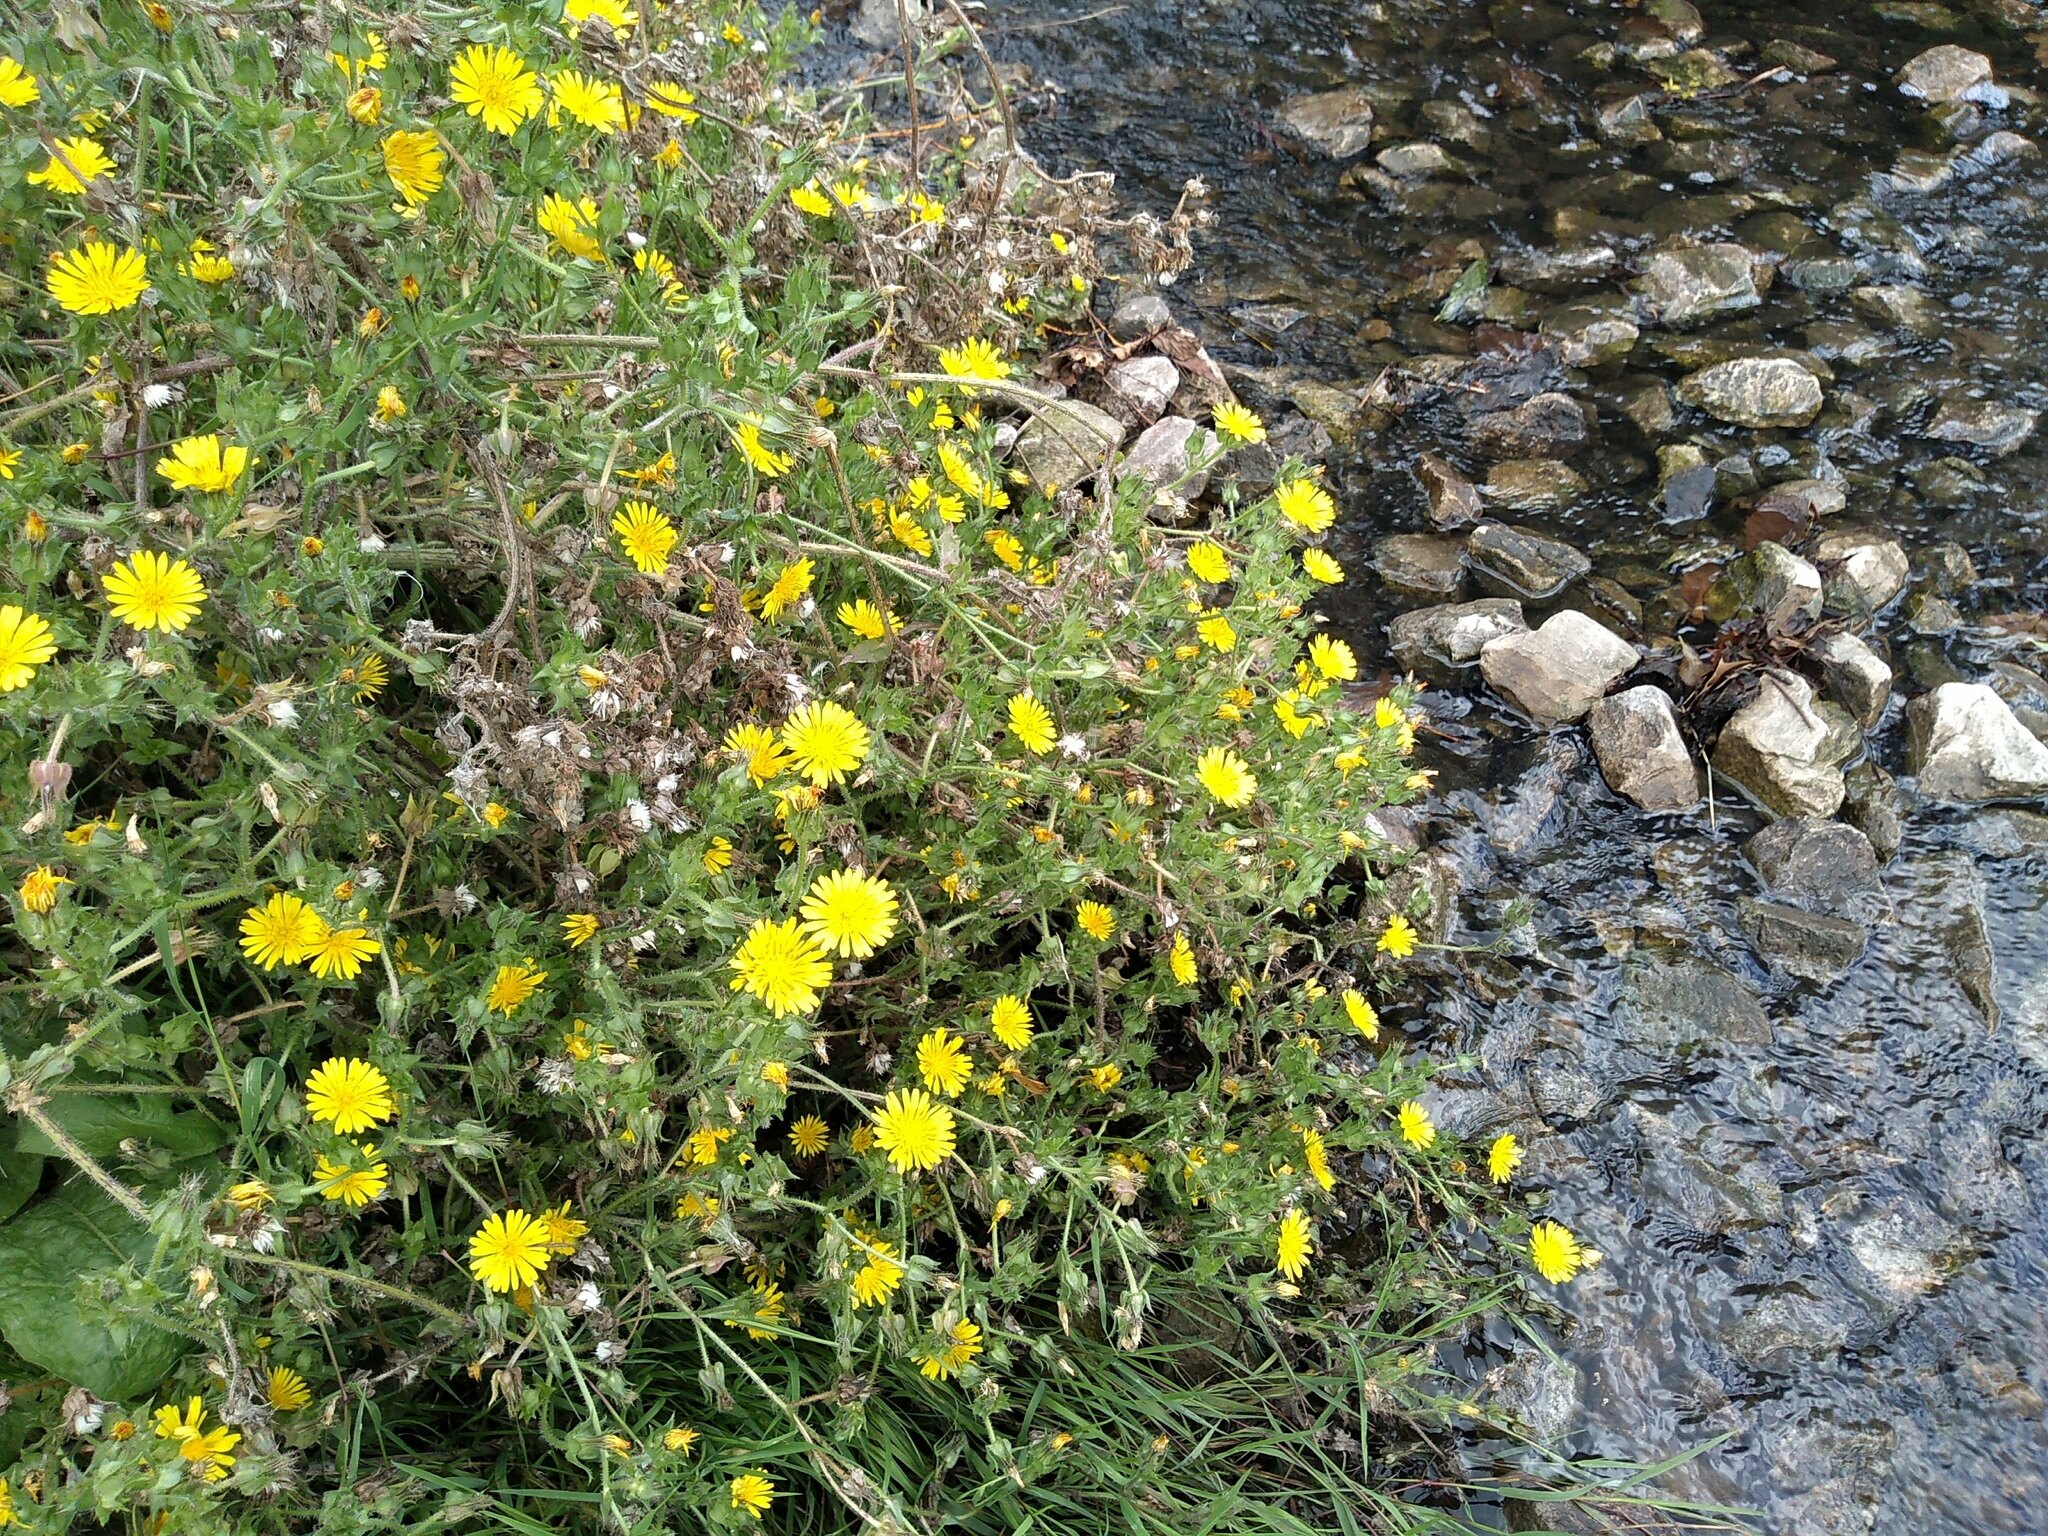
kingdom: Plantae
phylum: Tracheophyta
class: Magnoliopsida
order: Asterales
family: Asteraceae
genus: Helminthotheca
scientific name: Helminthotheca echioides
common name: Ox-tongue
